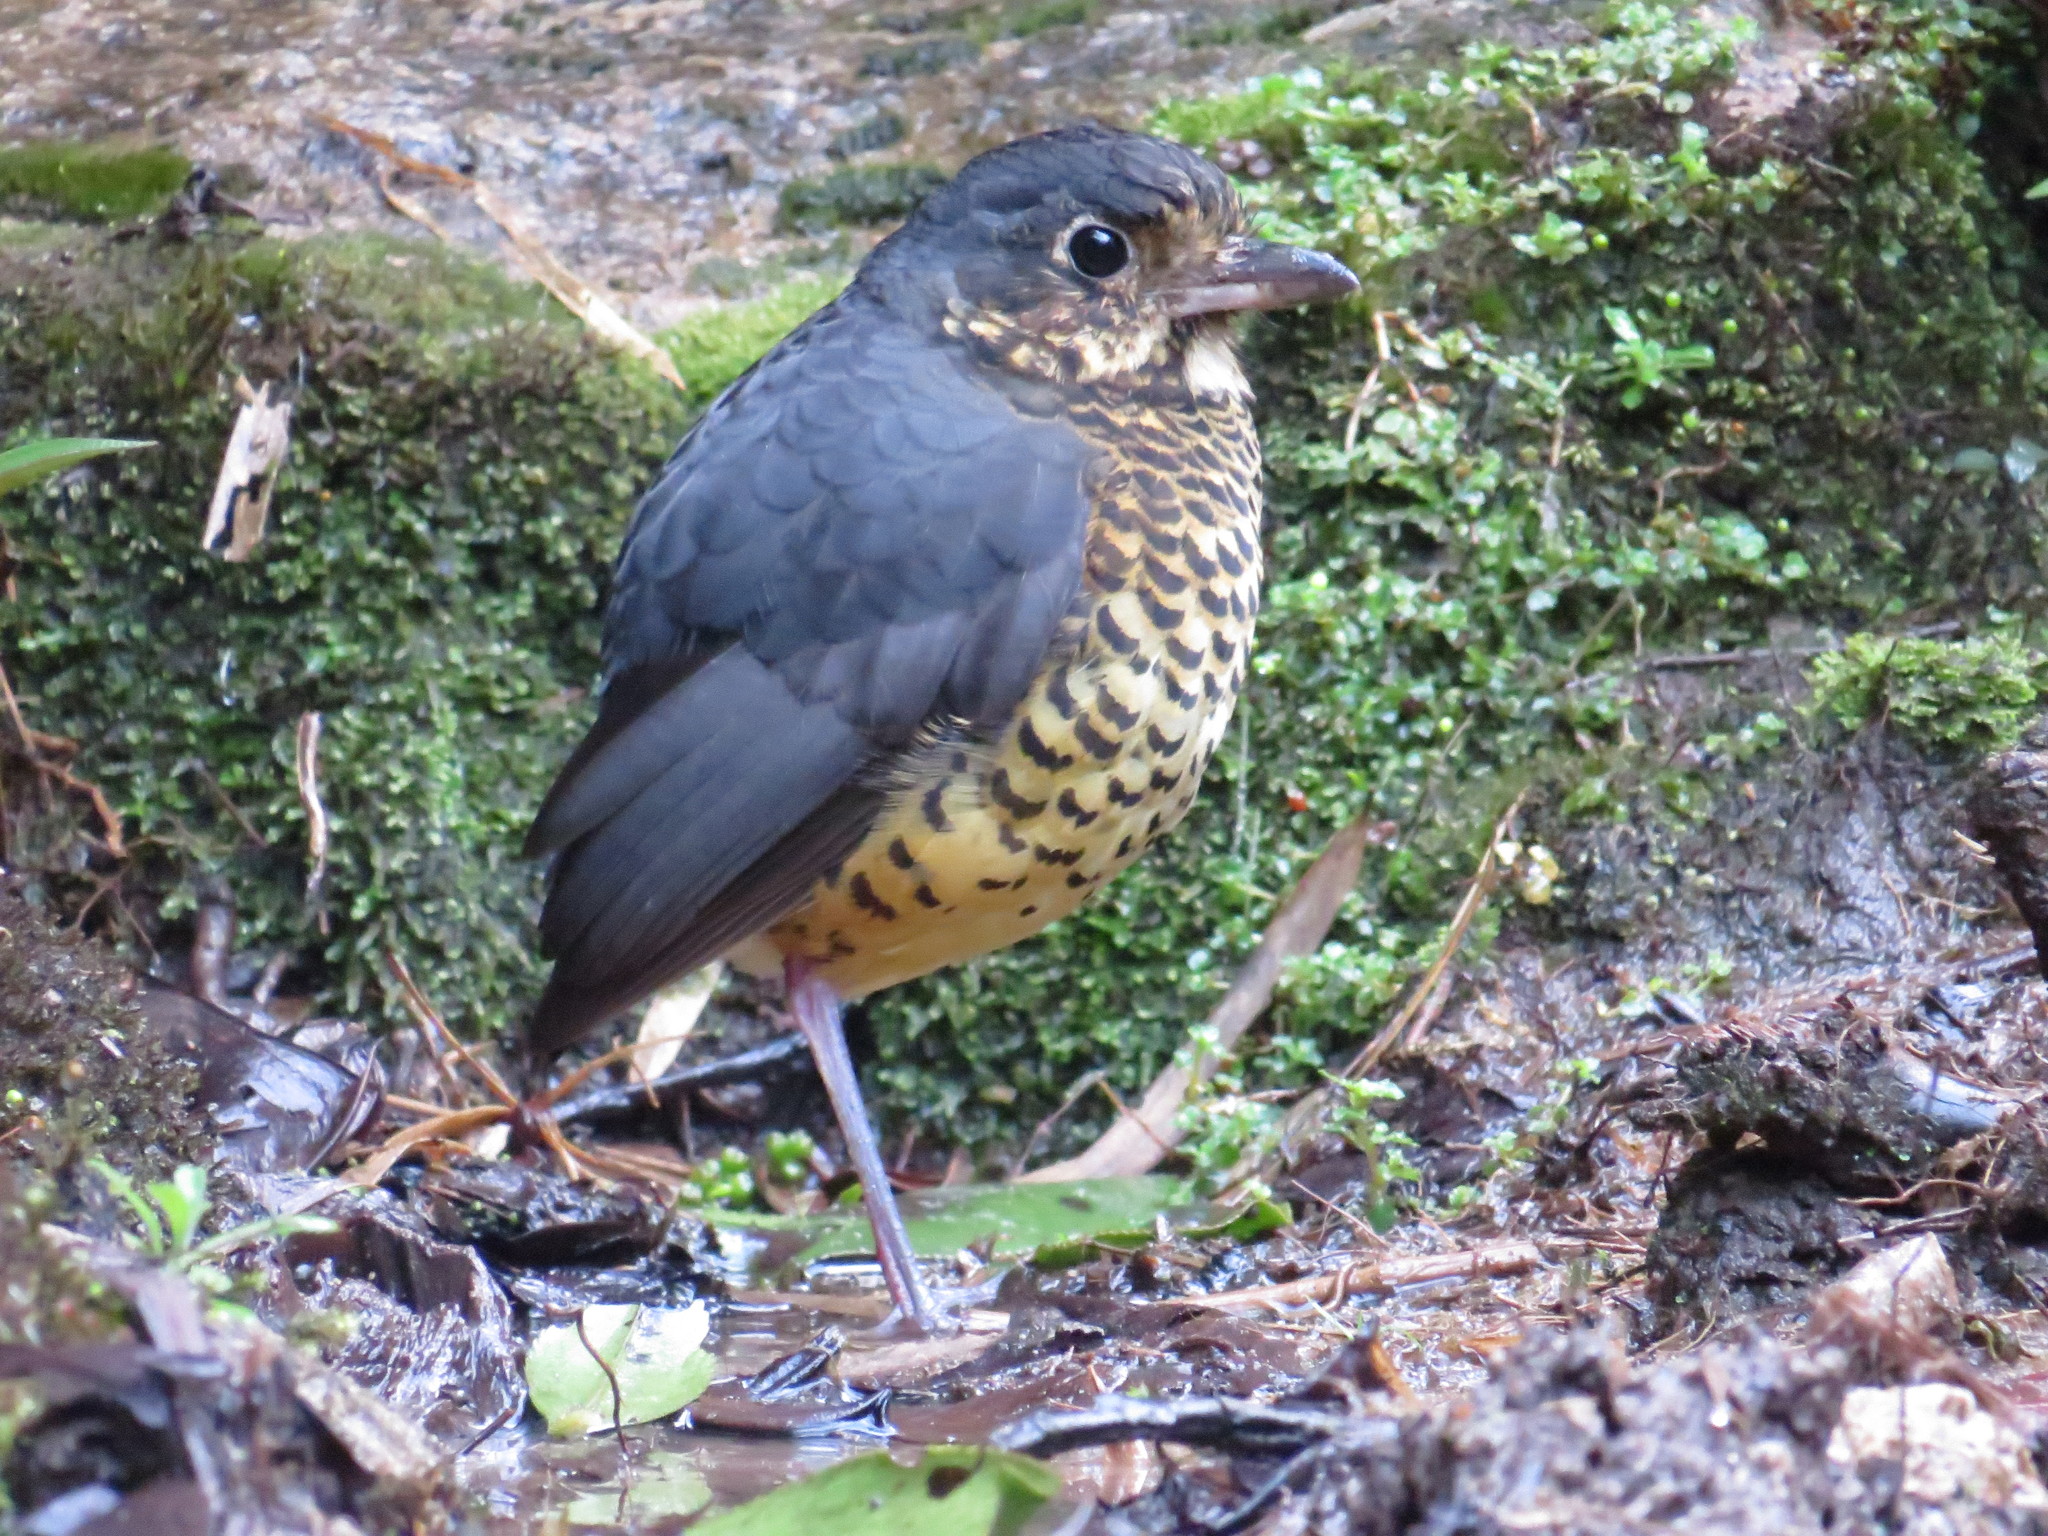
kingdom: Animalia
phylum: Chordata
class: Aves
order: Passeriformes
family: Grallariidae
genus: Grallaria
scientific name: Grallaria squamigera
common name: Undulated antpitta
